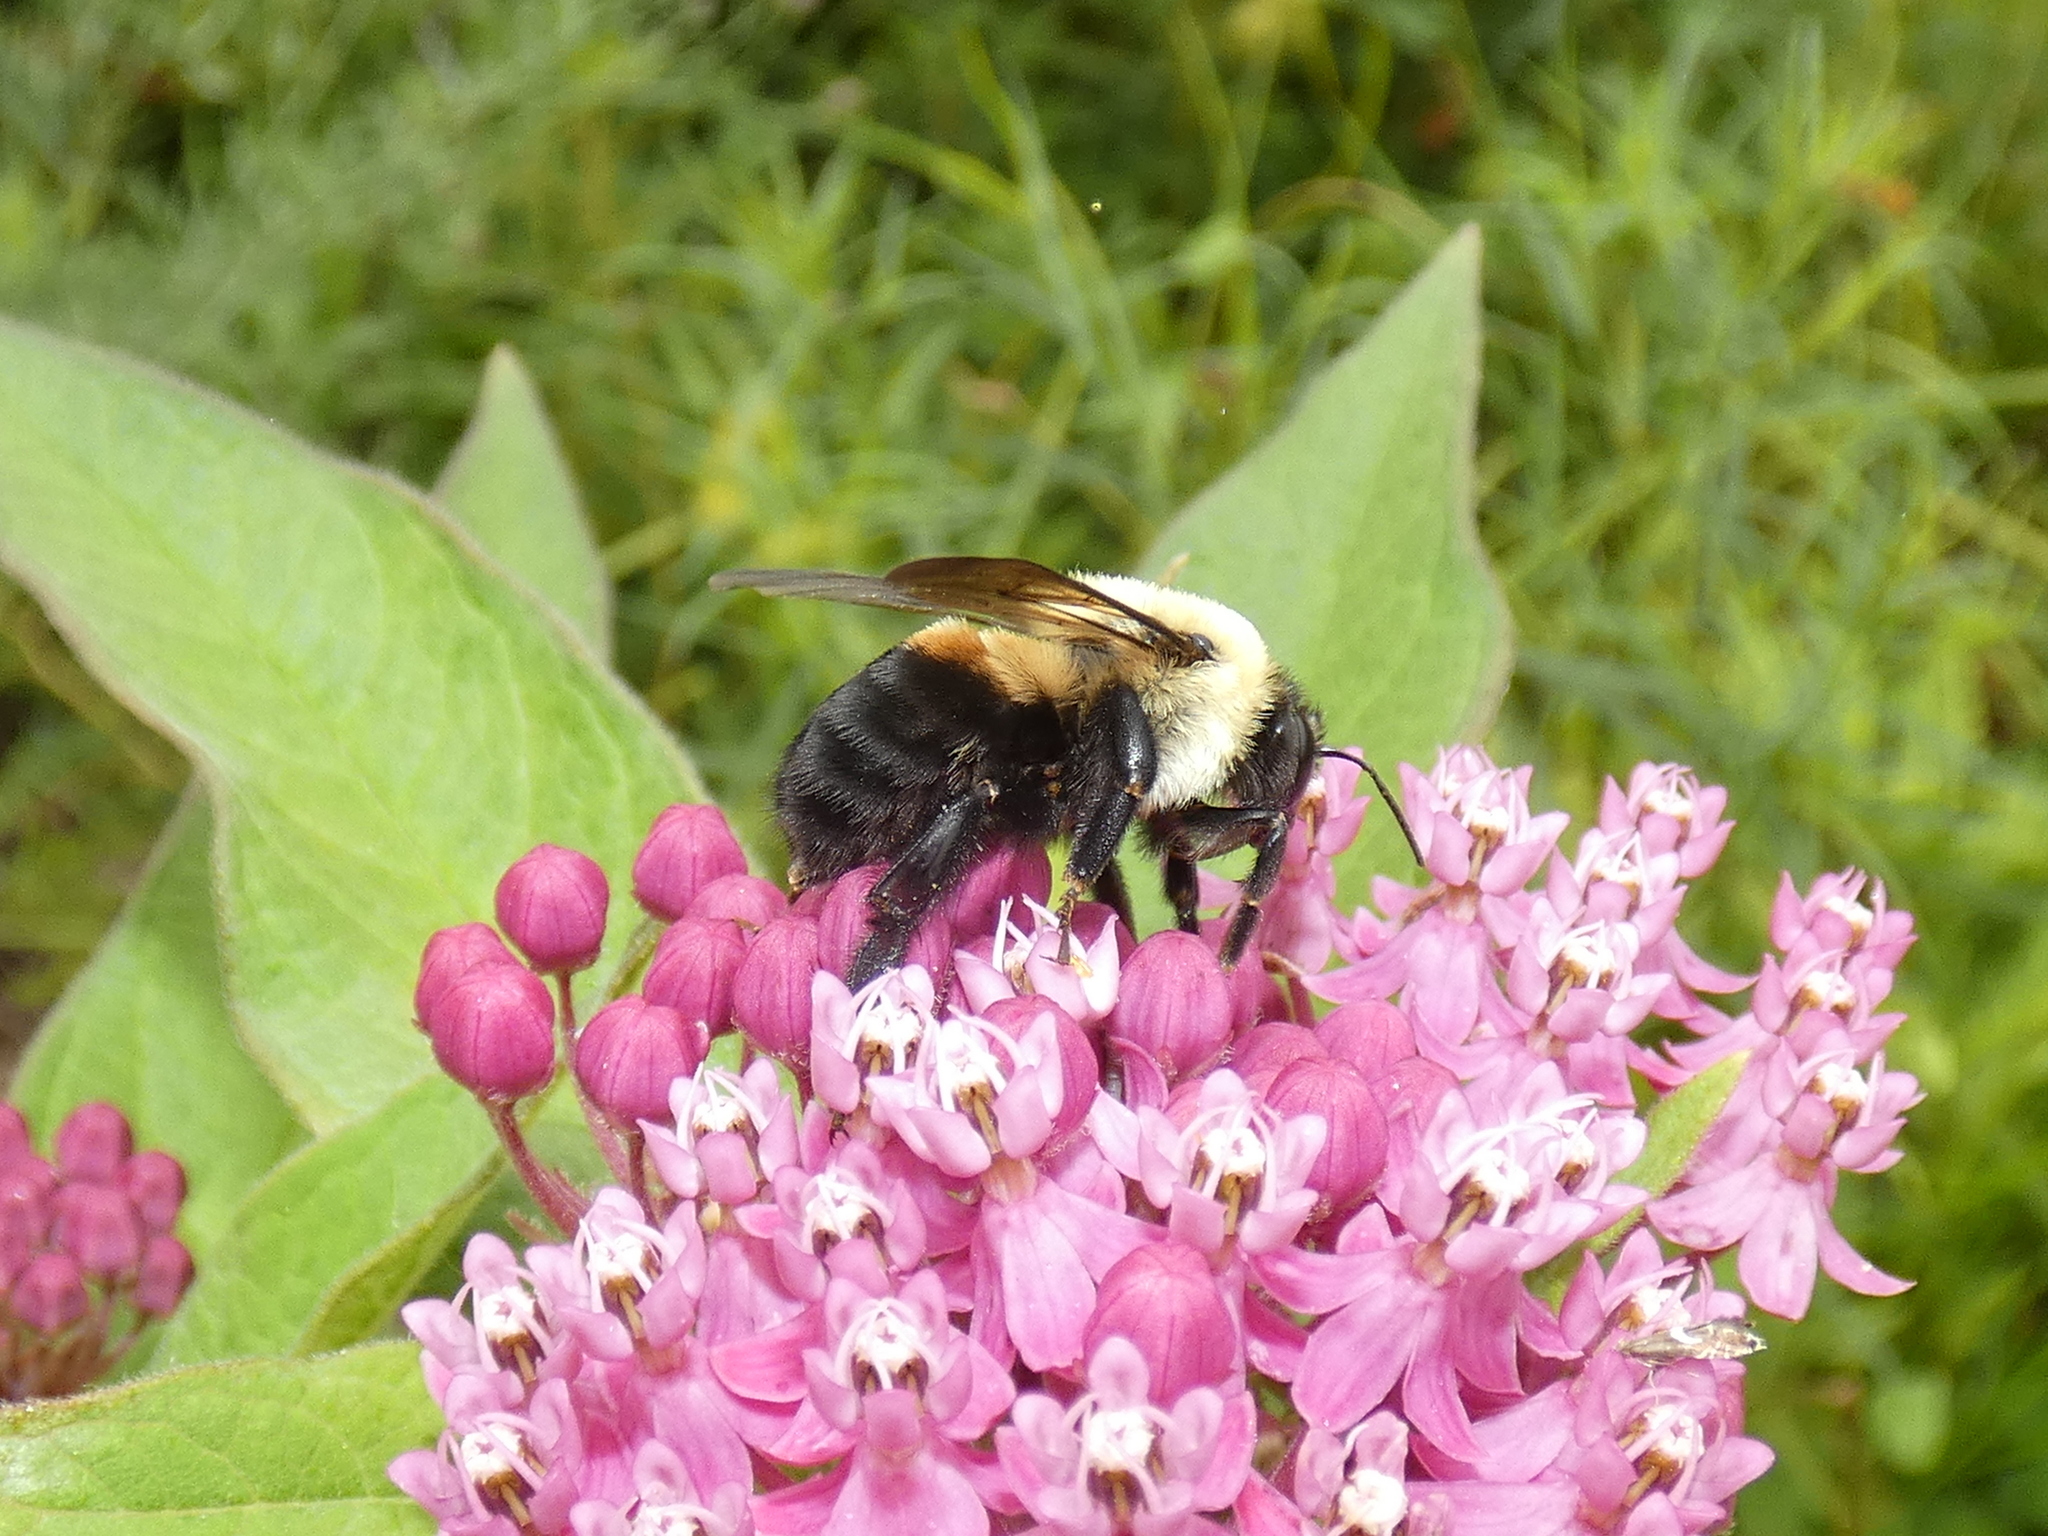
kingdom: Animalia
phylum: Arthropoda
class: Insecta
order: Hymenoptera
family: Apidae
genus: Bombus
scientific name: Bombus griseocollis
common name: Brown-belted bumble bee
